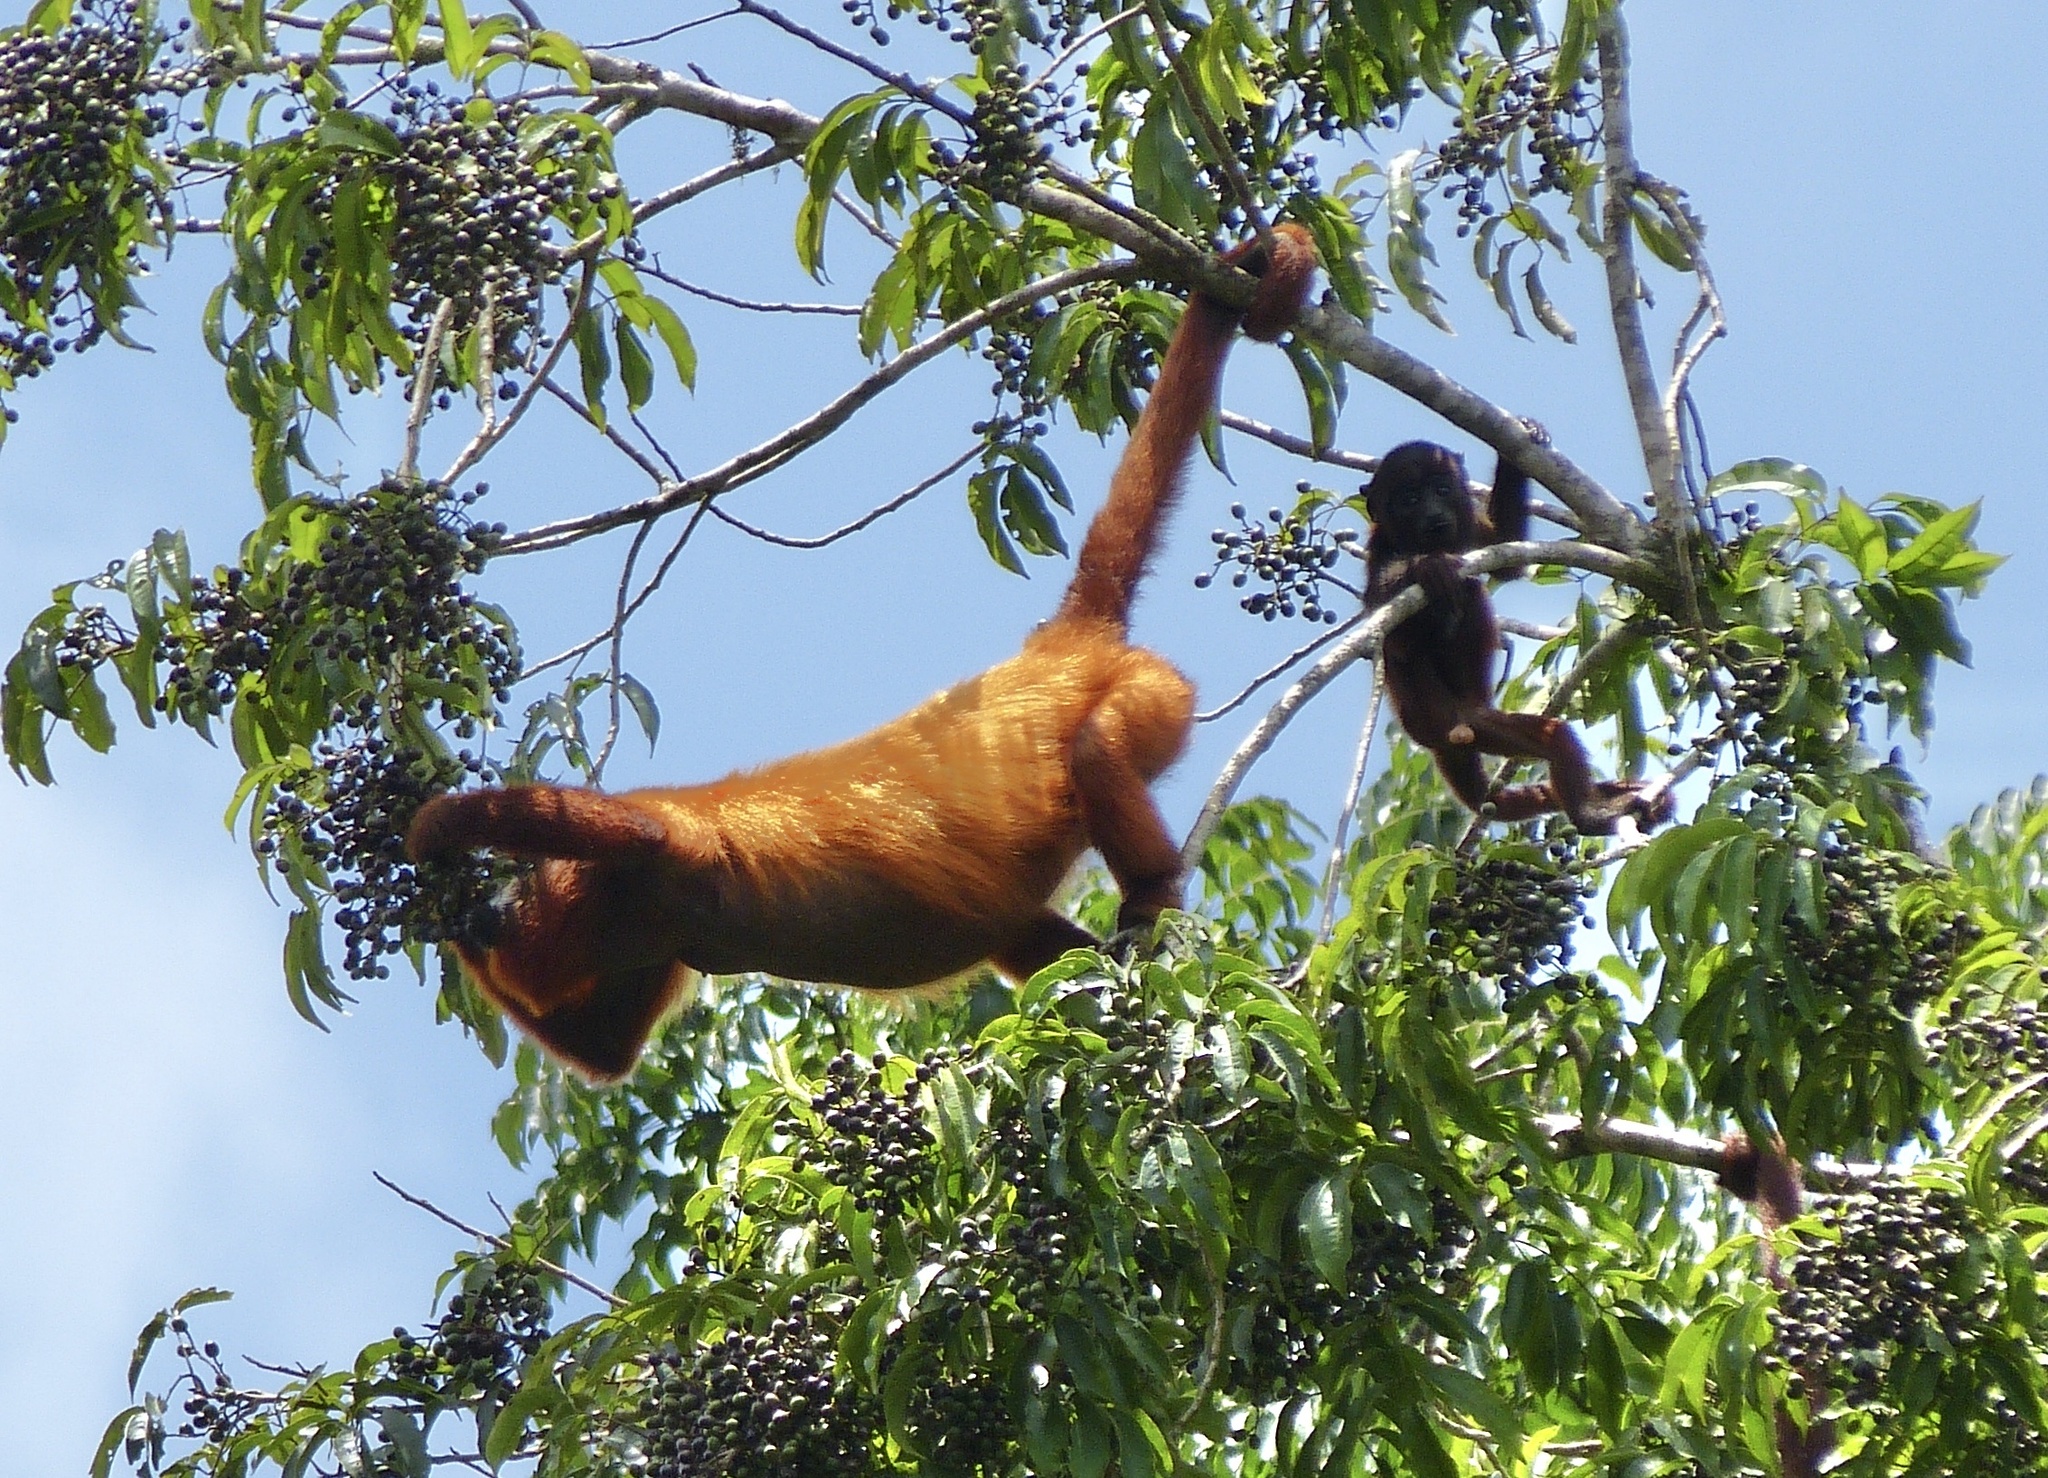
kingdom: Animalia
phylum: Chordata
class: Mammalia
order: Primates
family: Atelidae
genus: Alouatta
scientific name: Alouatta macconnelli
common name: Guyanan red howler
